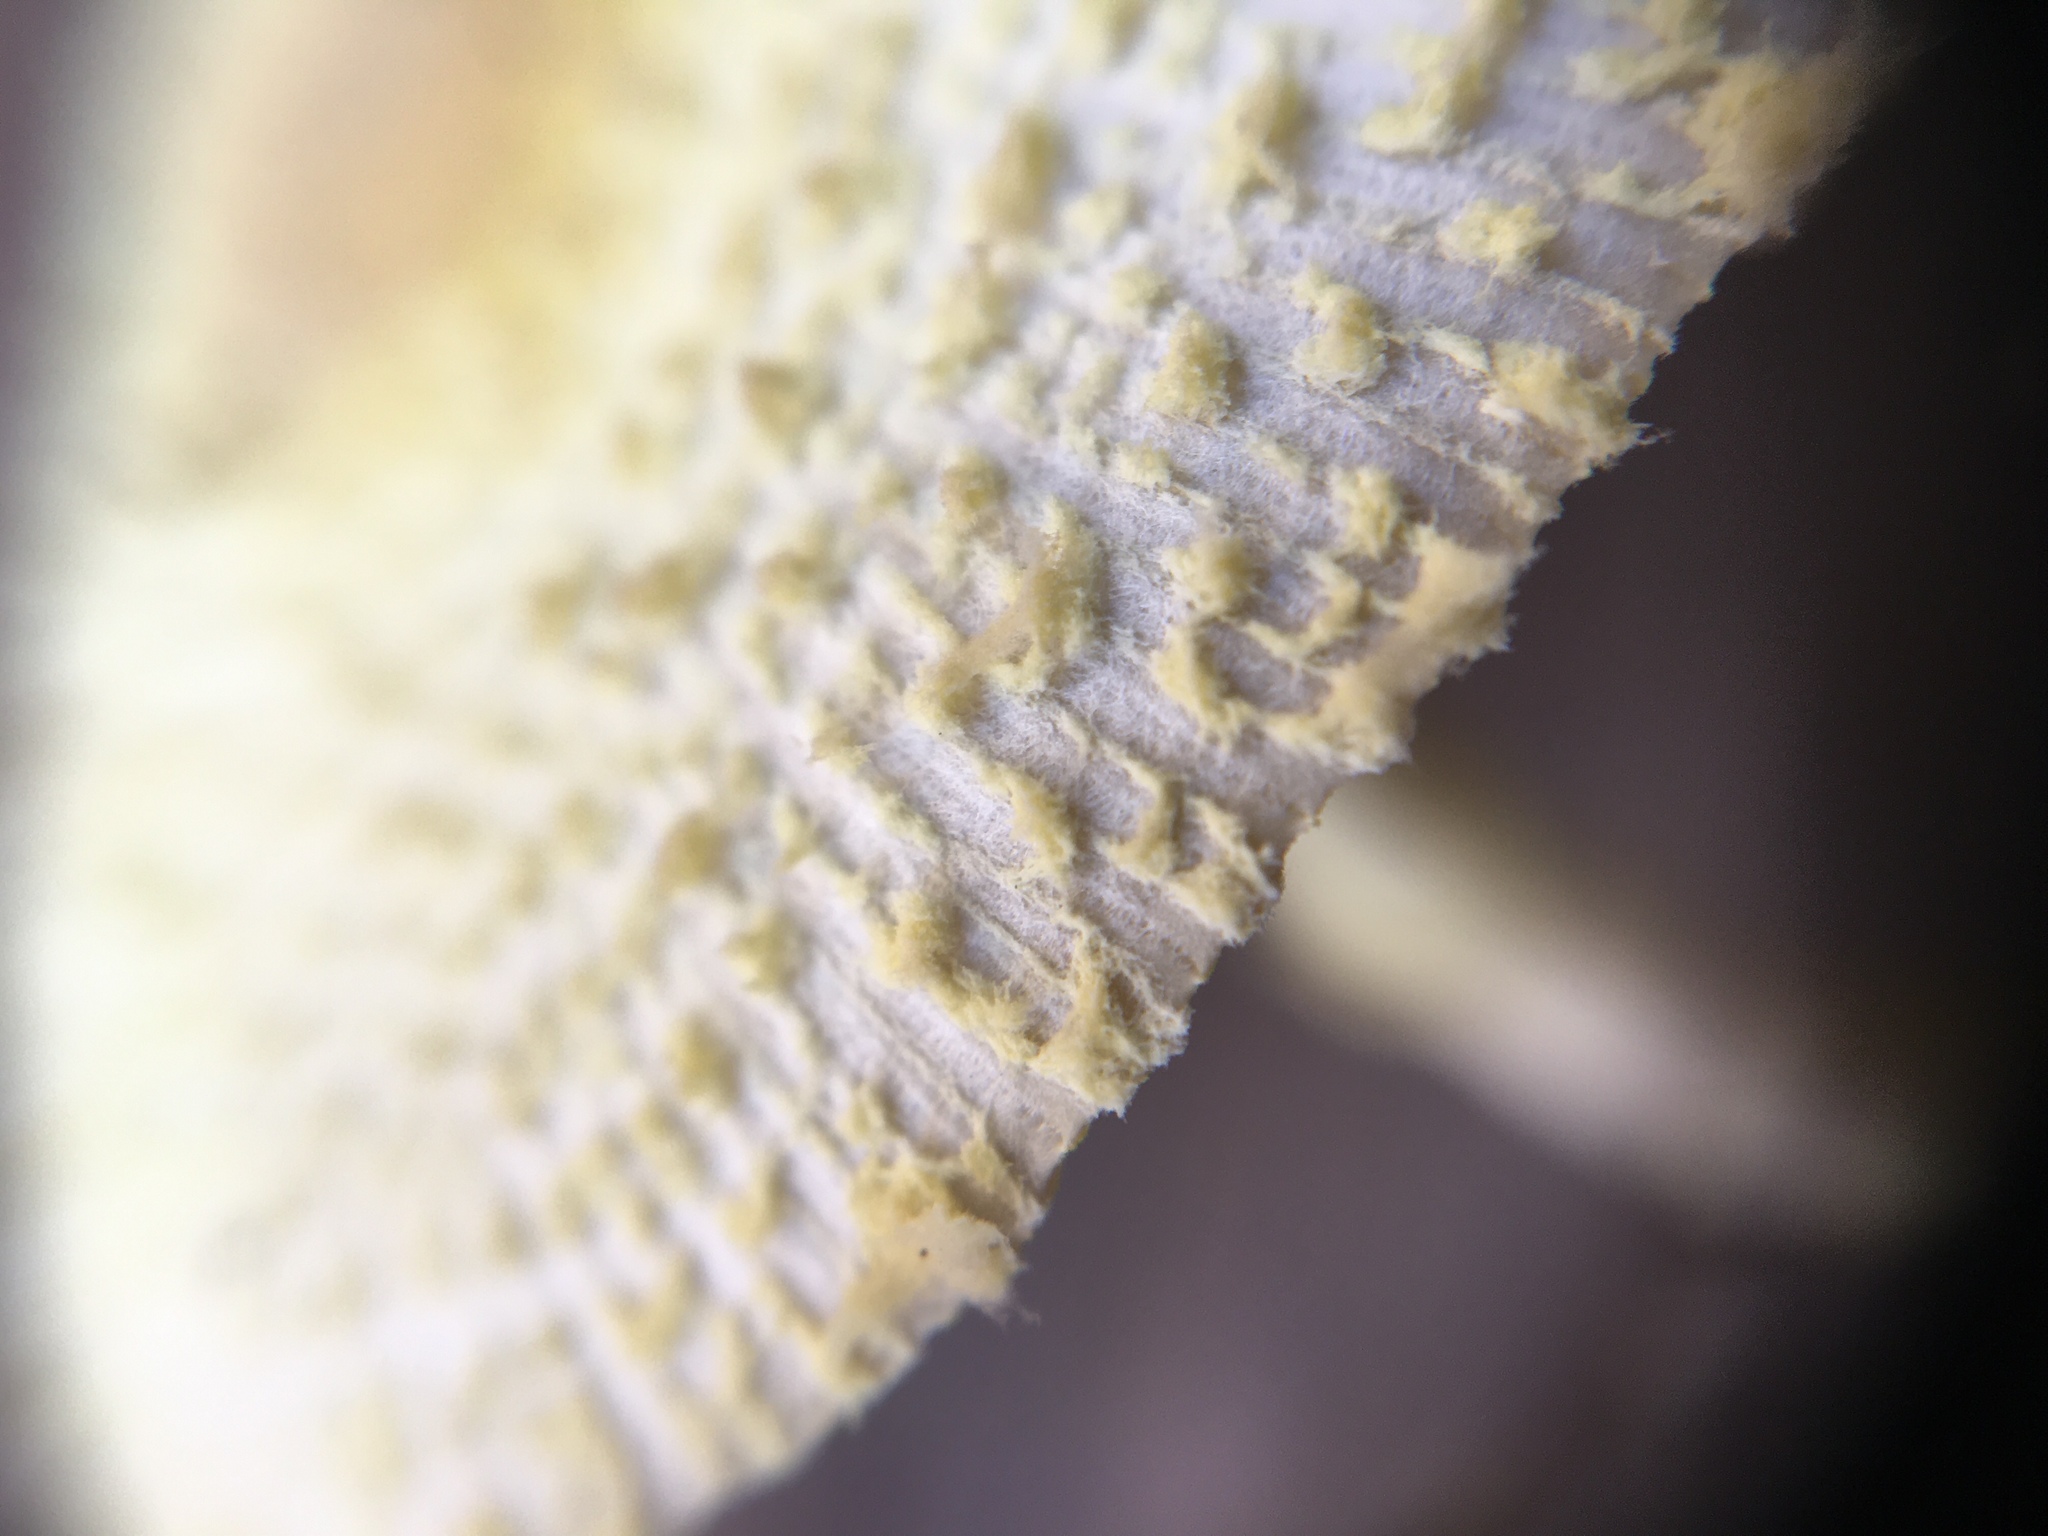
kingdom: Fungi
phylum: Basidiomycota
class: Agaricomycetes
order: Agaricales
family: Agaricaceae
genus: Leucocoprinus
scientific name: Leucocoprinus birnbaumii
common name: Plantpot dapperling
